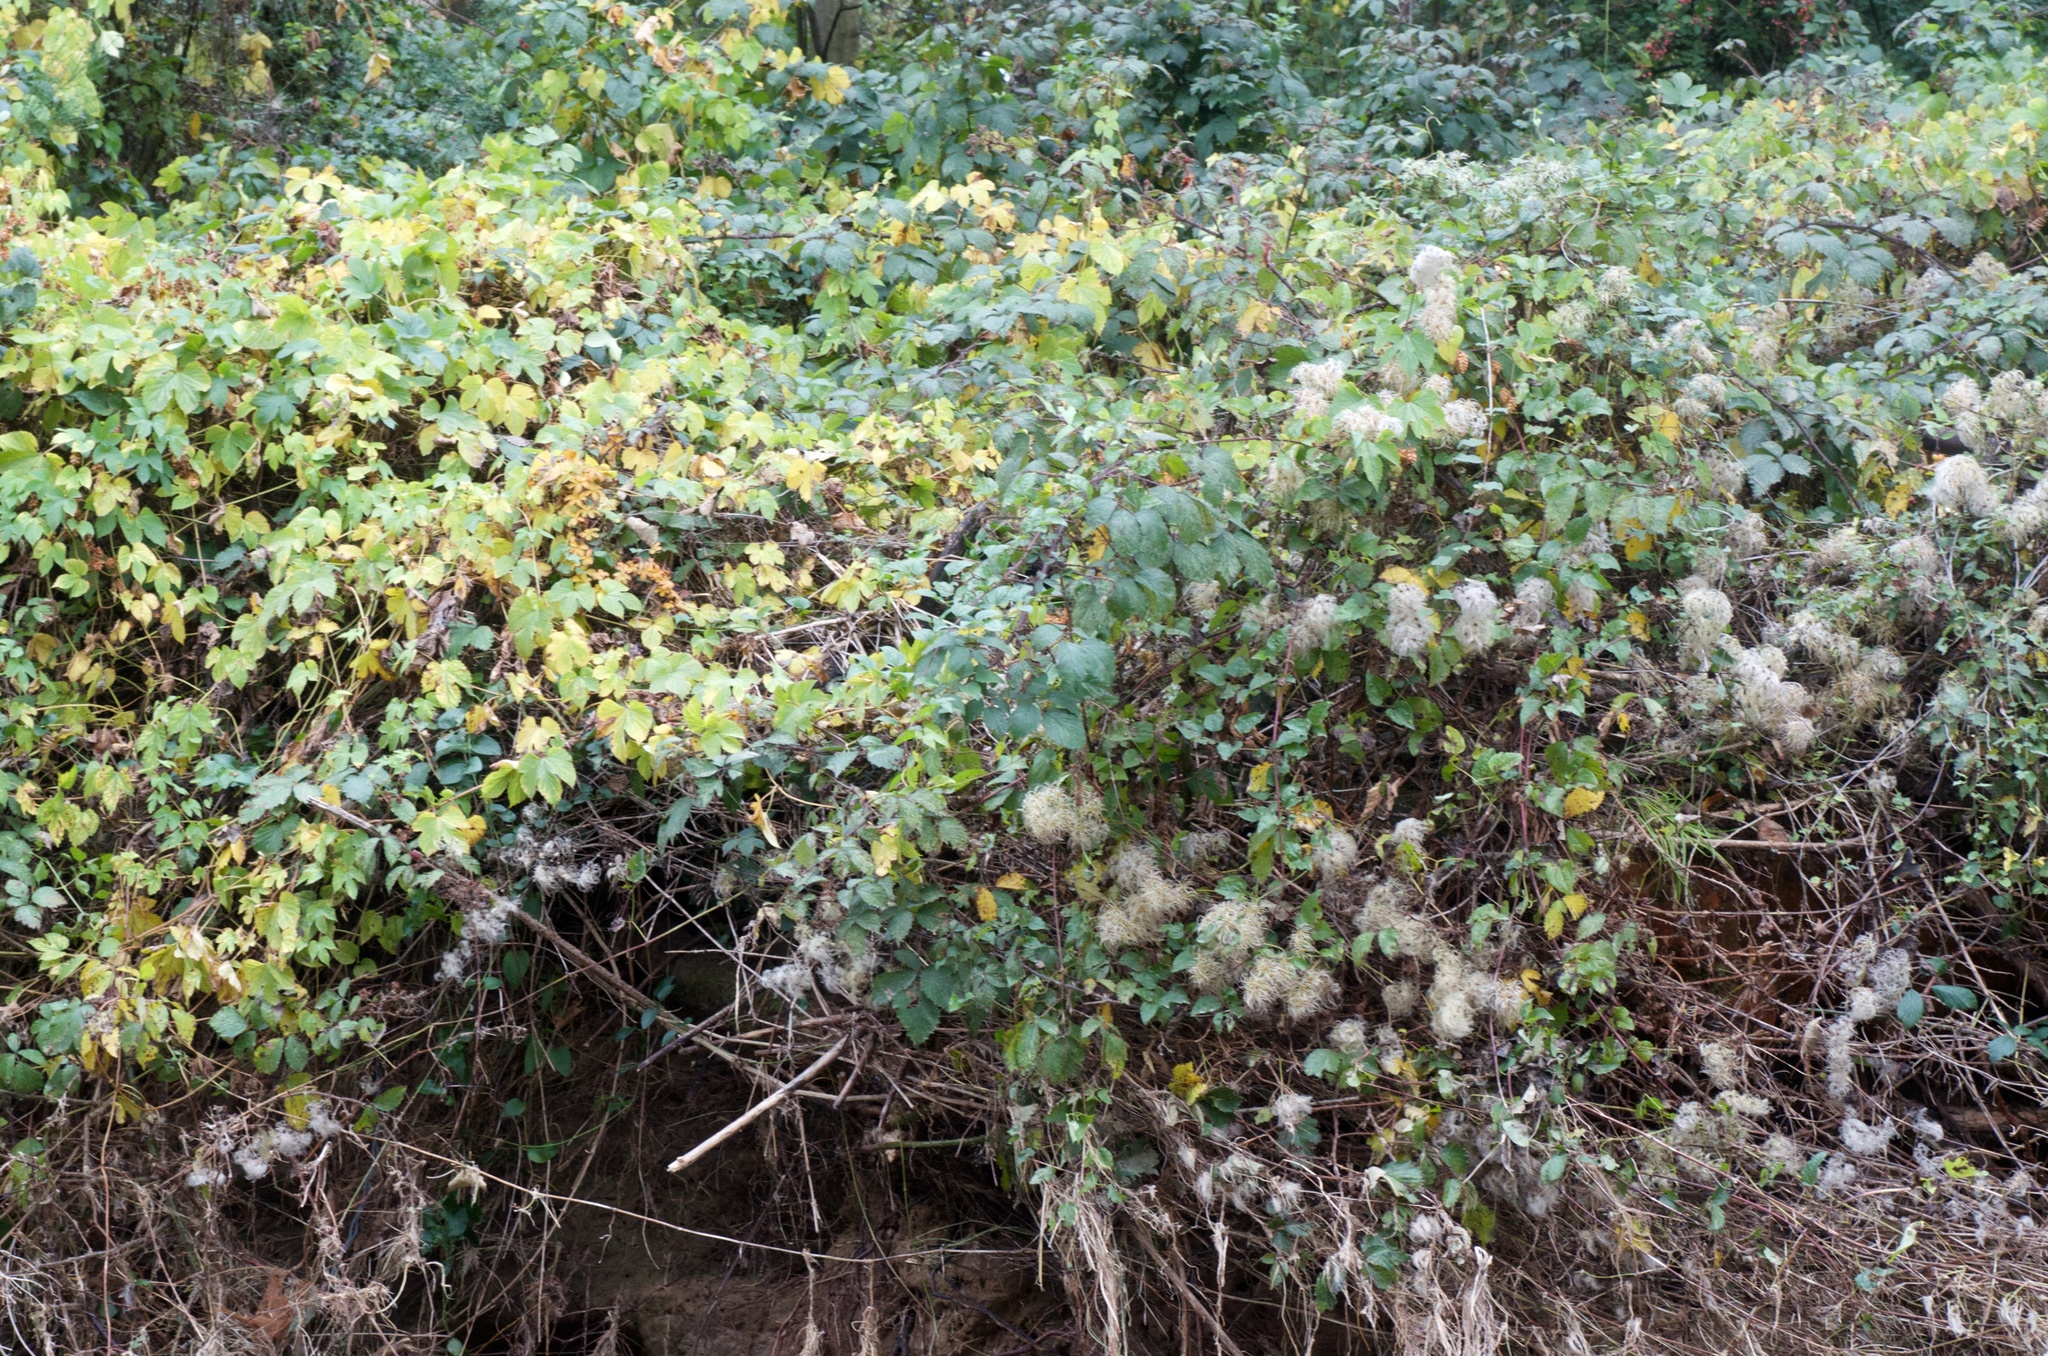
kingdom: Plantae
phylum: Tracheophyta
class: Magnoliopsida
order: Ranunculales
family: Ranunculaceae
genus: Clematis
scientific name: Clematis vitalba
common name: Evergreen clematis
